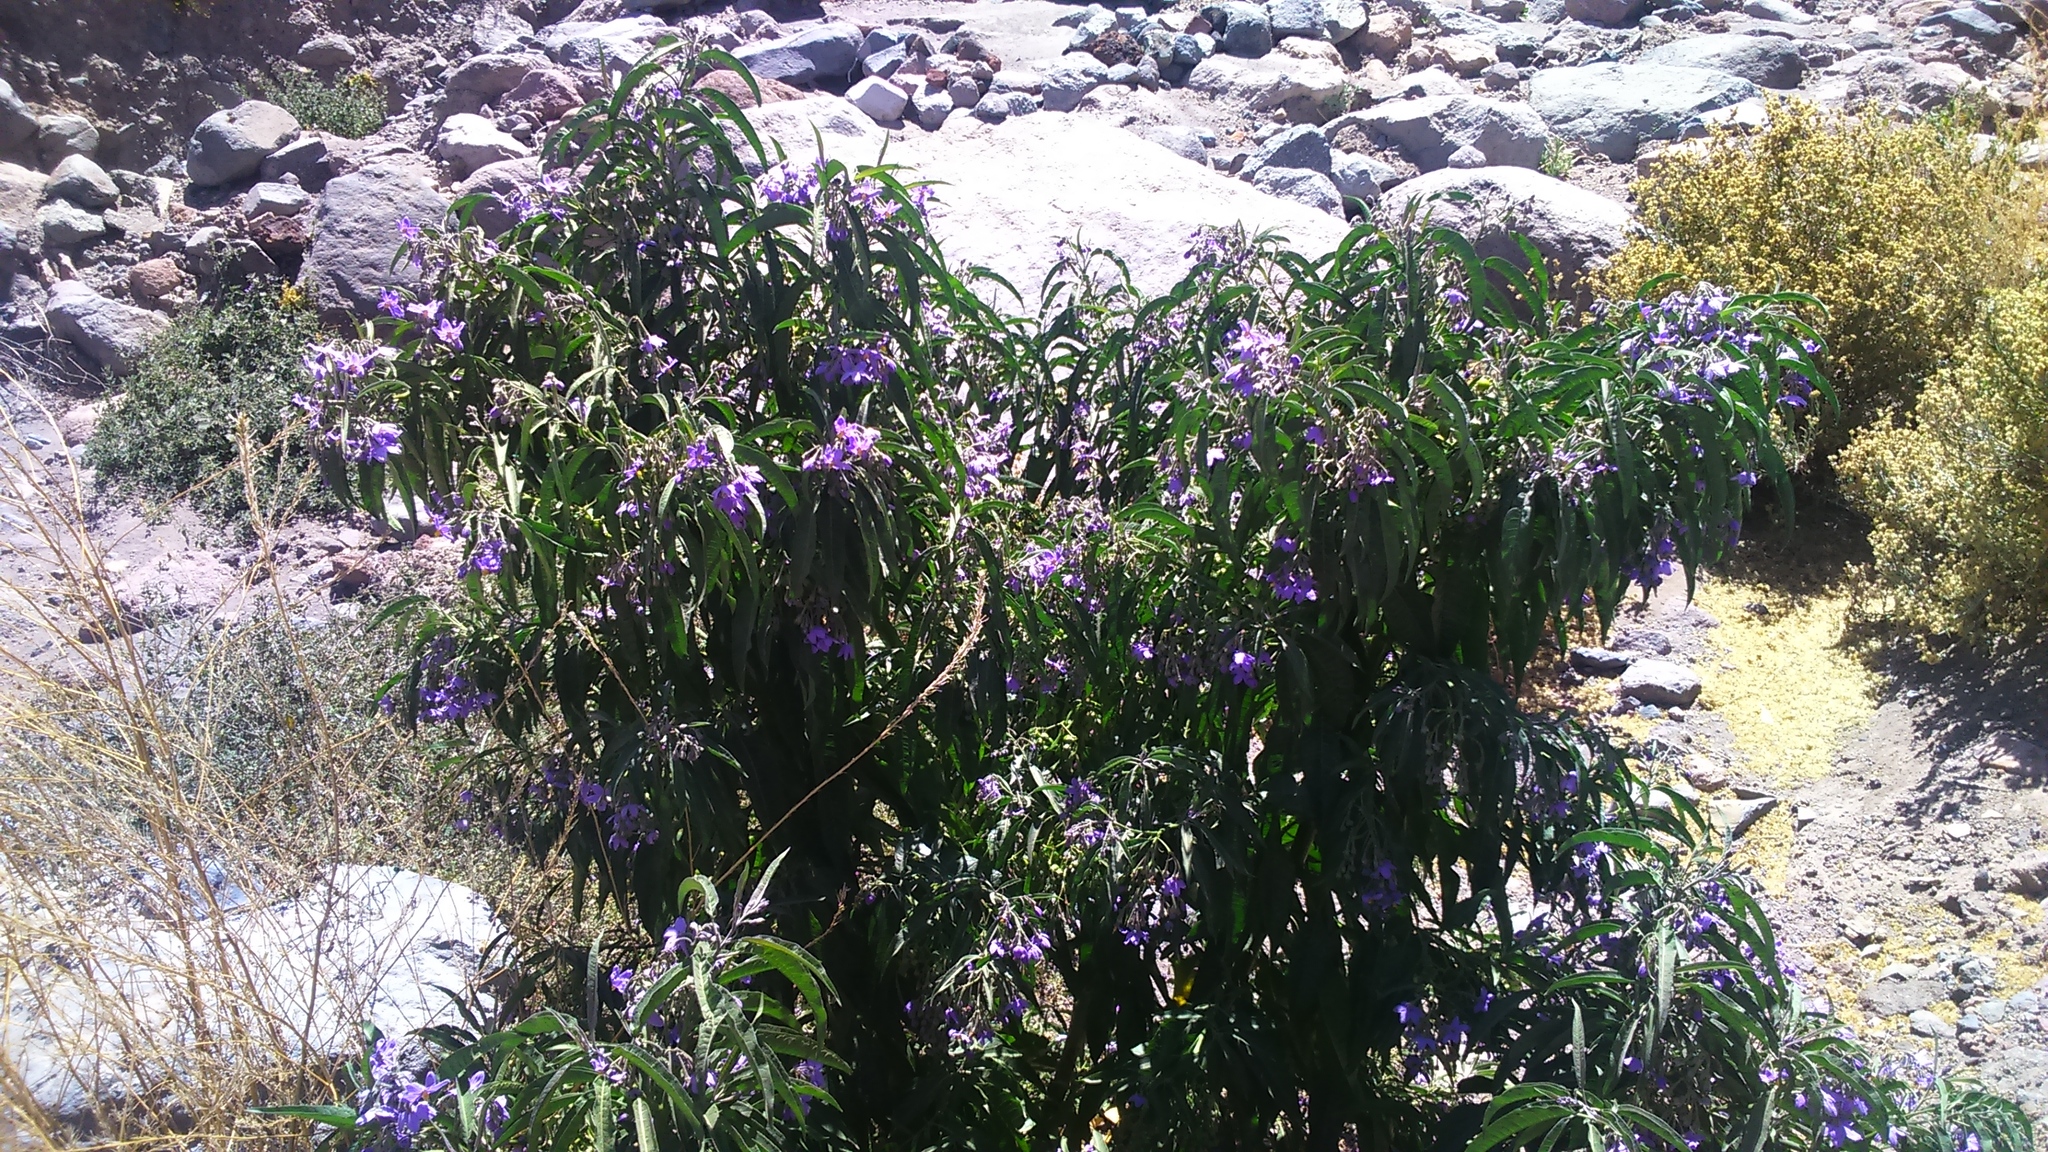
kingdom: Plantae
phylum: Tracheophyta
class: Magnoliopsida
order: Solanales
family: Solanaceae
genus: Solanum
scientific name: Solanum nitidum
